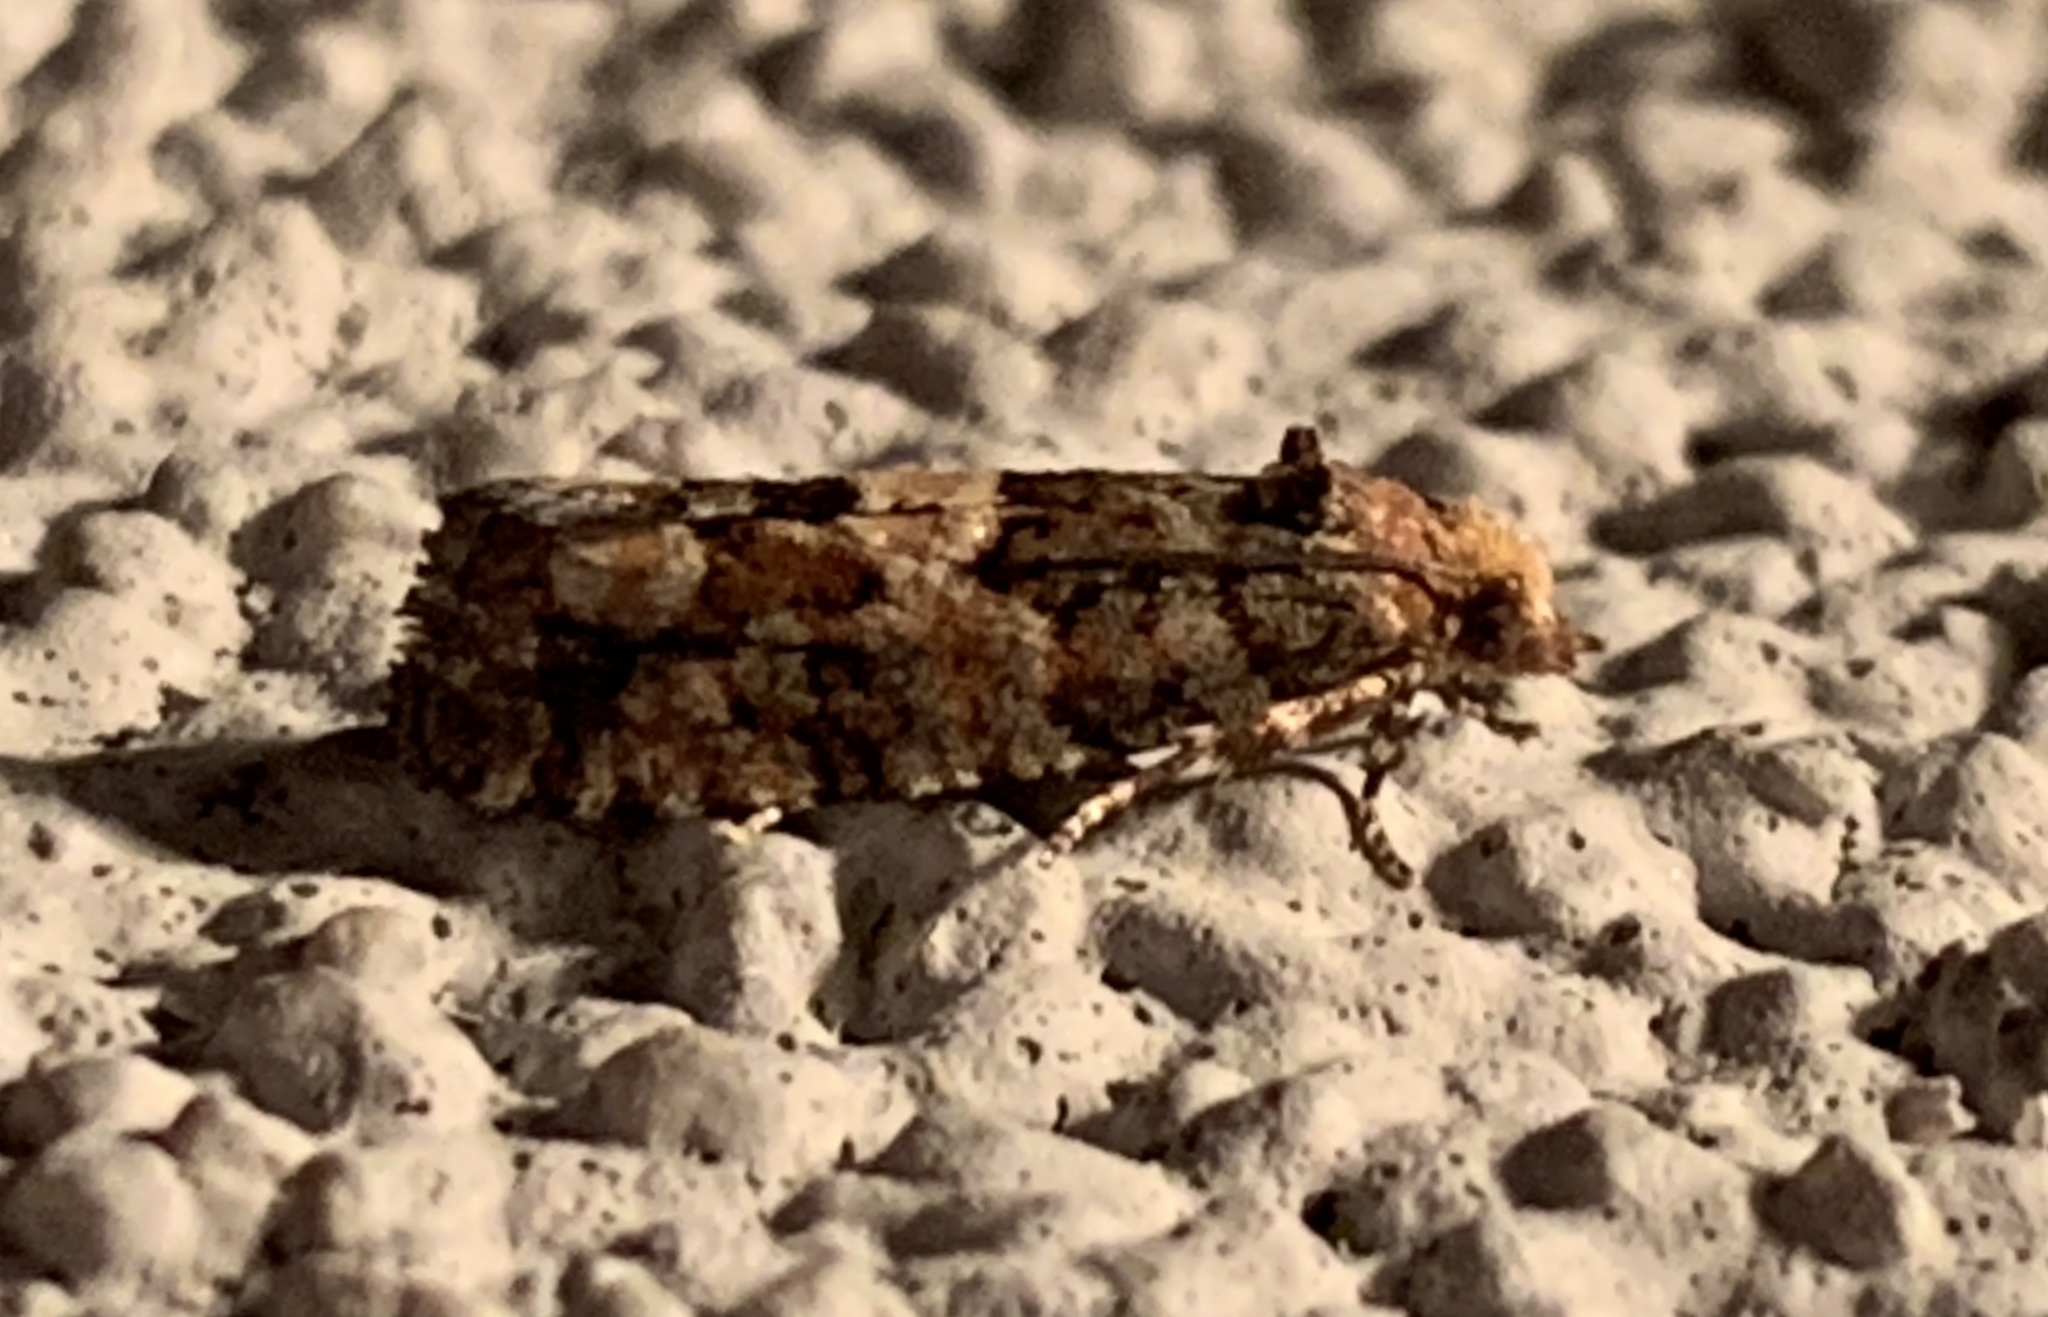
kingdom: Animalia
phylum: Arthropoda
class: Insecta
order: Lepidoptera
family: Tortricidae
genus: Eucopina
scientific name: Eucopina tocullionana
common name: White pinecone borer moth
